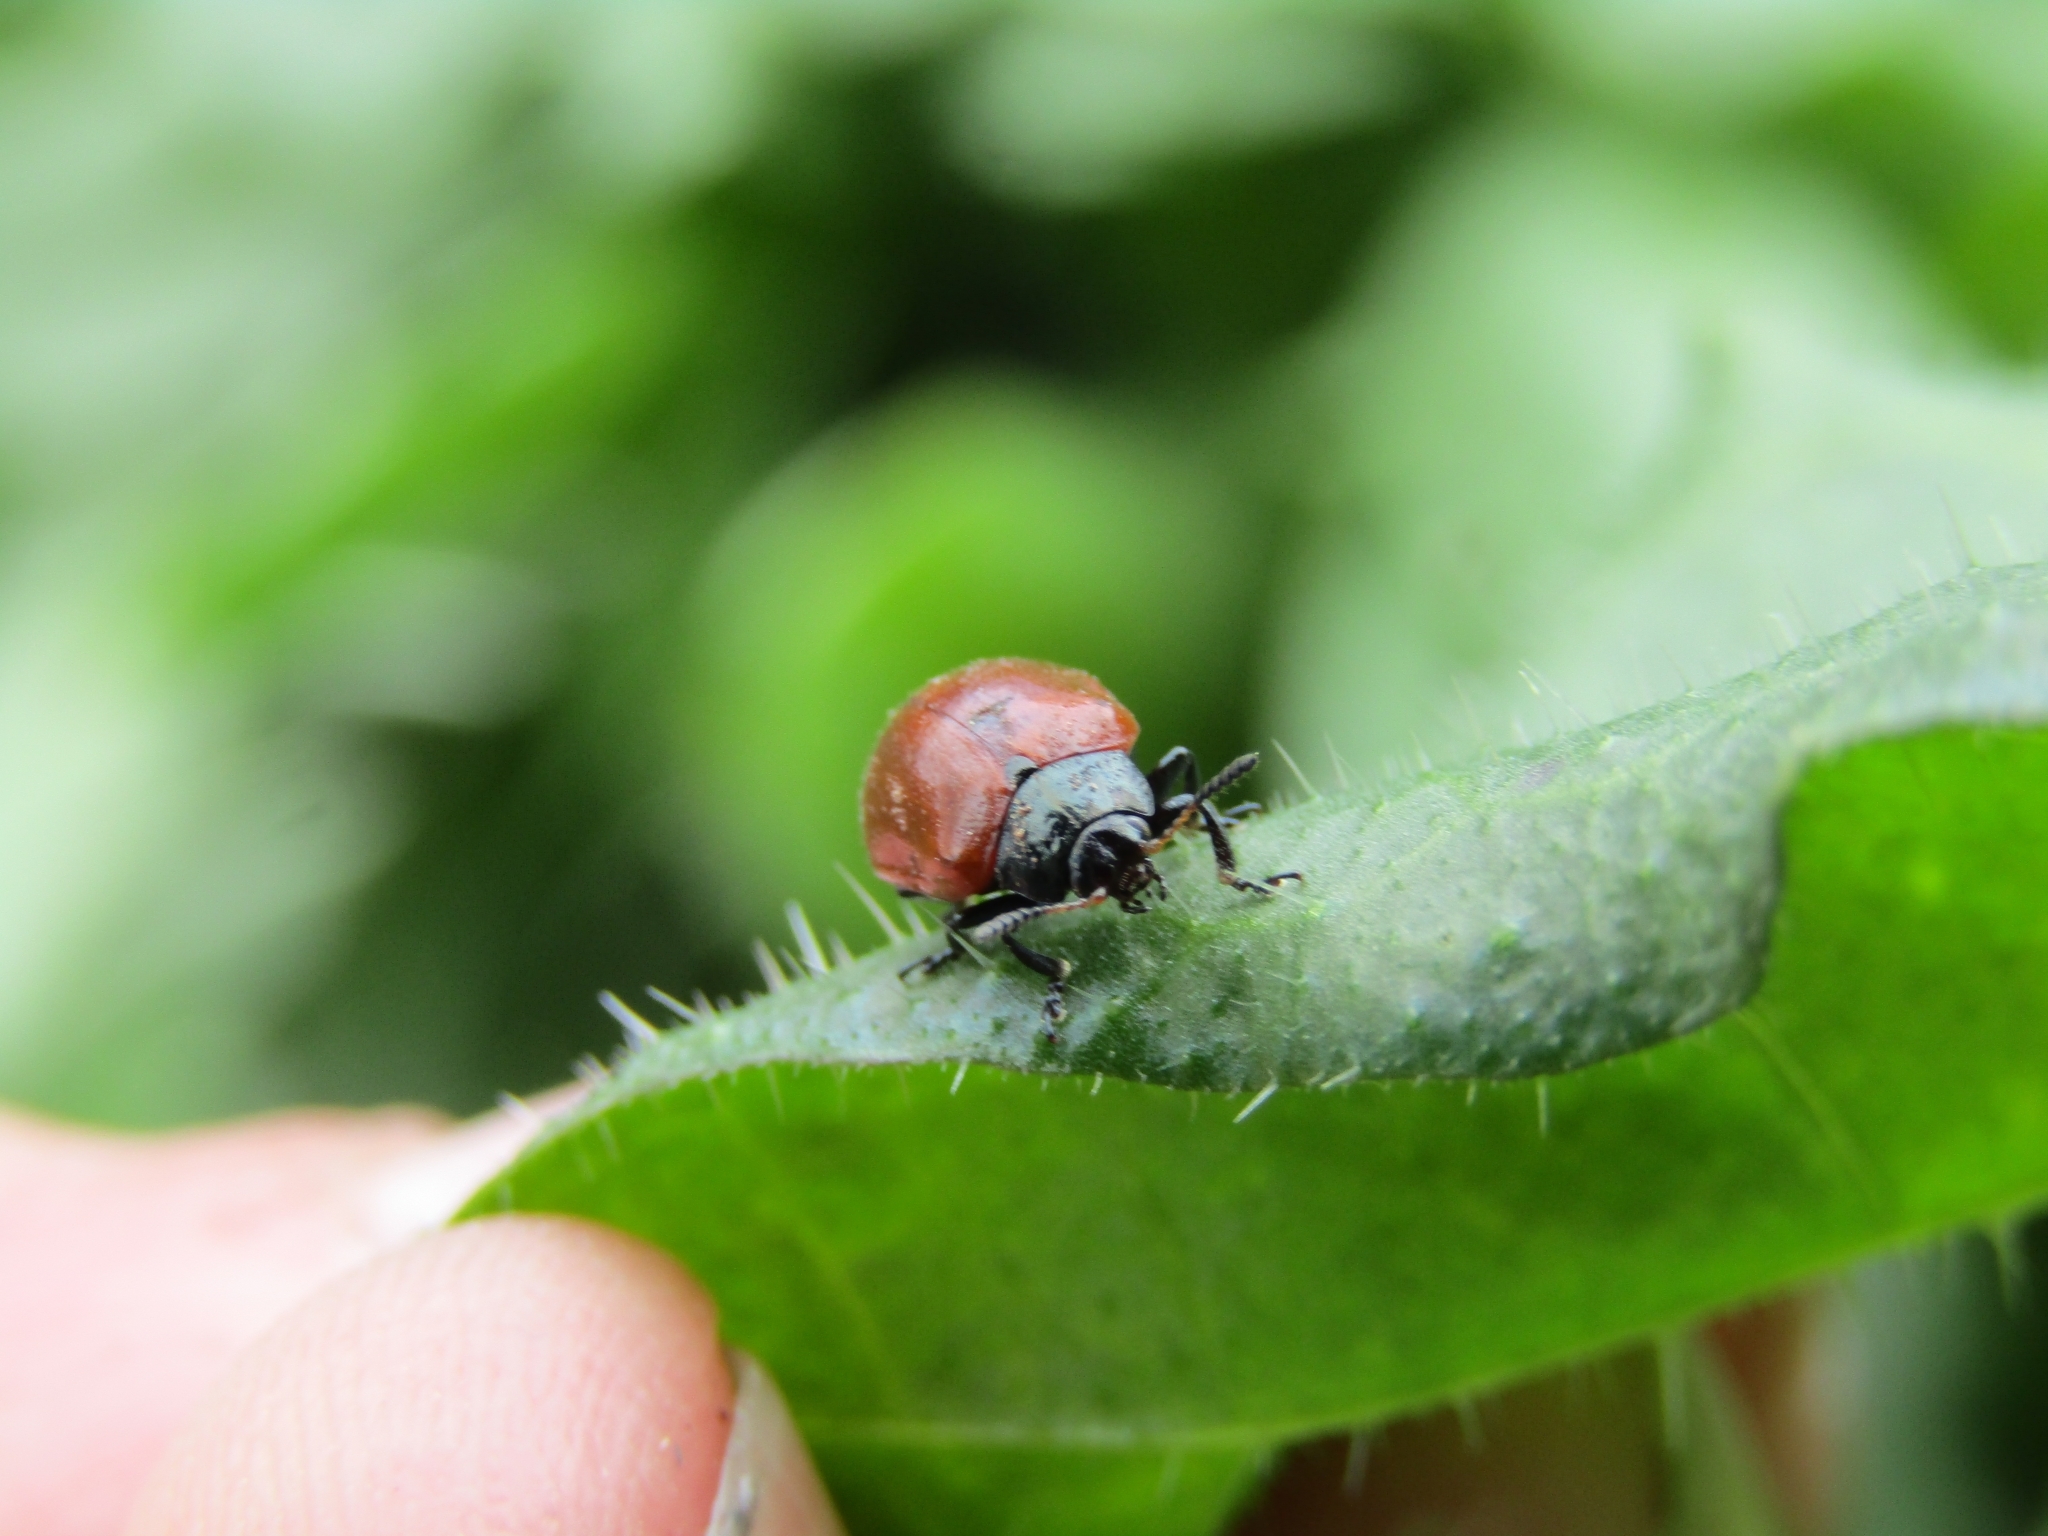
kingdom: Animalia
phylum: Arthropoda
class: Insecta
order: Coleoptera
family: Chrysomelidae
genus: Plagiodera
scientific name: Plagiodera
